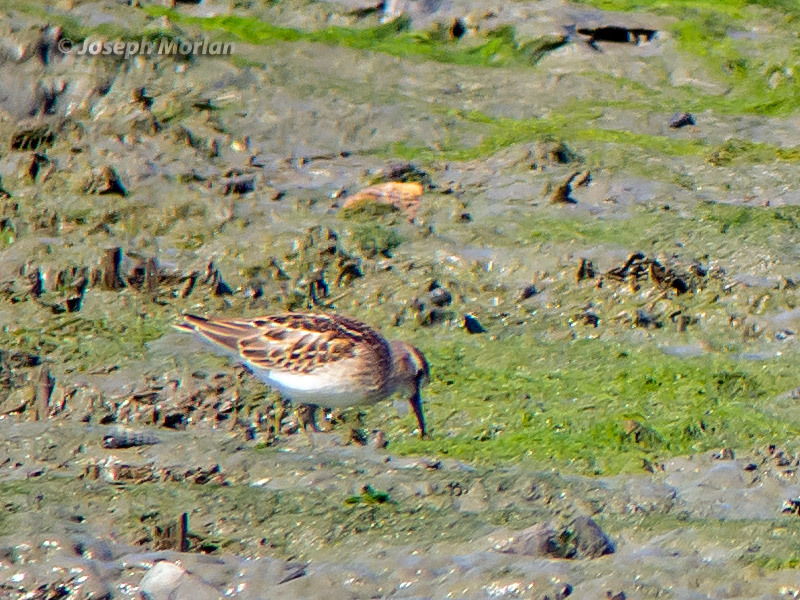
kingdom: Animalia
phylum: Chordata
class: Aves
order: Charadriiformes
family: Scolopacidae
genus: Calidris
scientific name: Calidris minutilla
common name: Least sandpiper
